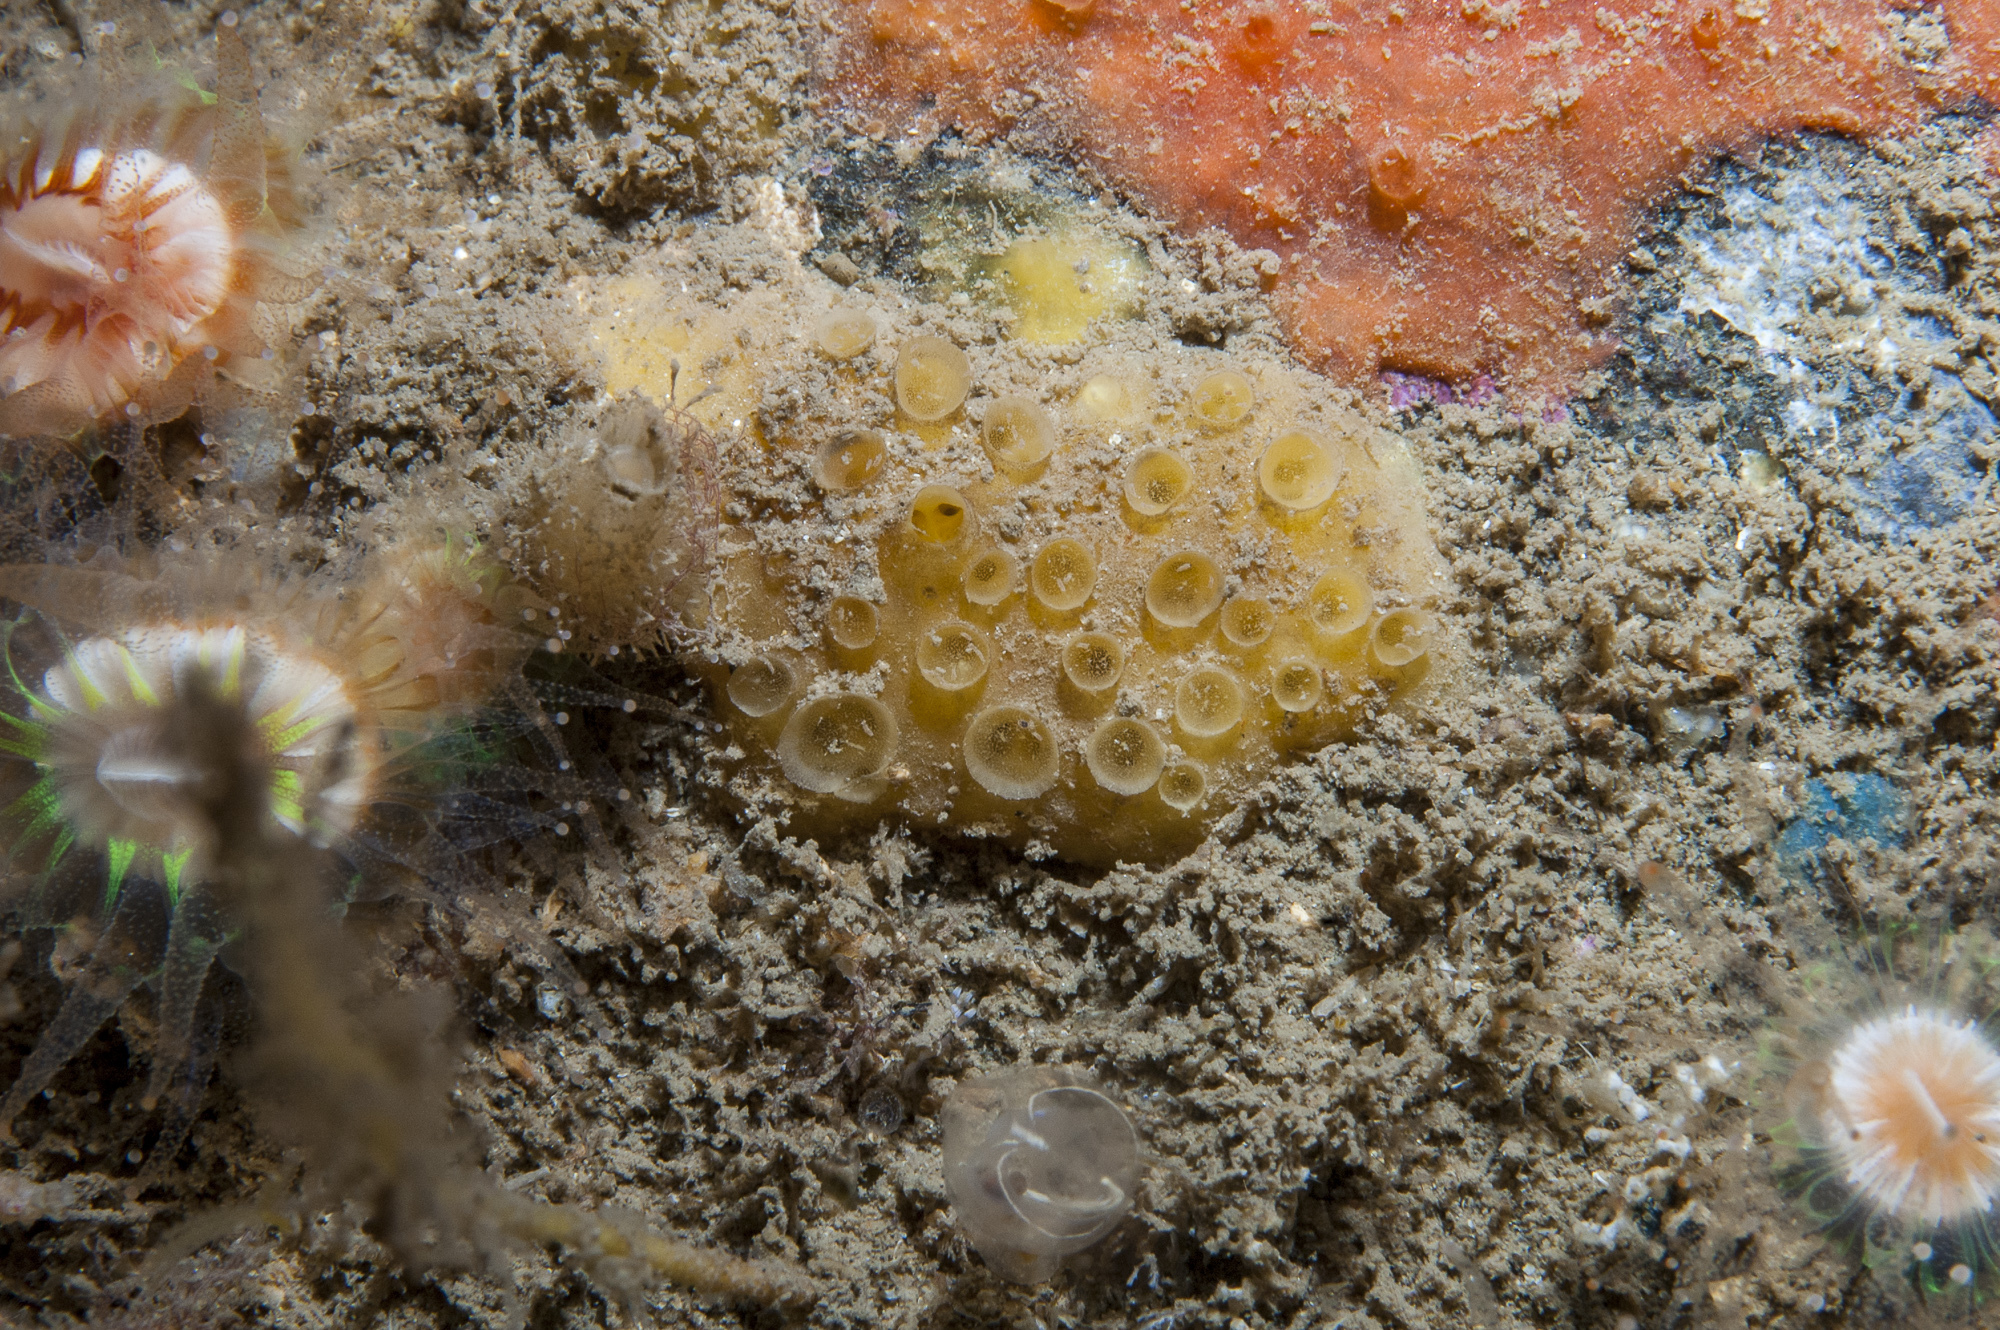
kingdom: Animalia
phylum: Porifera
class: Demospongiae
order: Poecilosclerida
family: Coelosphaeridae
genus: Lissodendoryx
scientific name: Lissodendoryx jenjonesae
